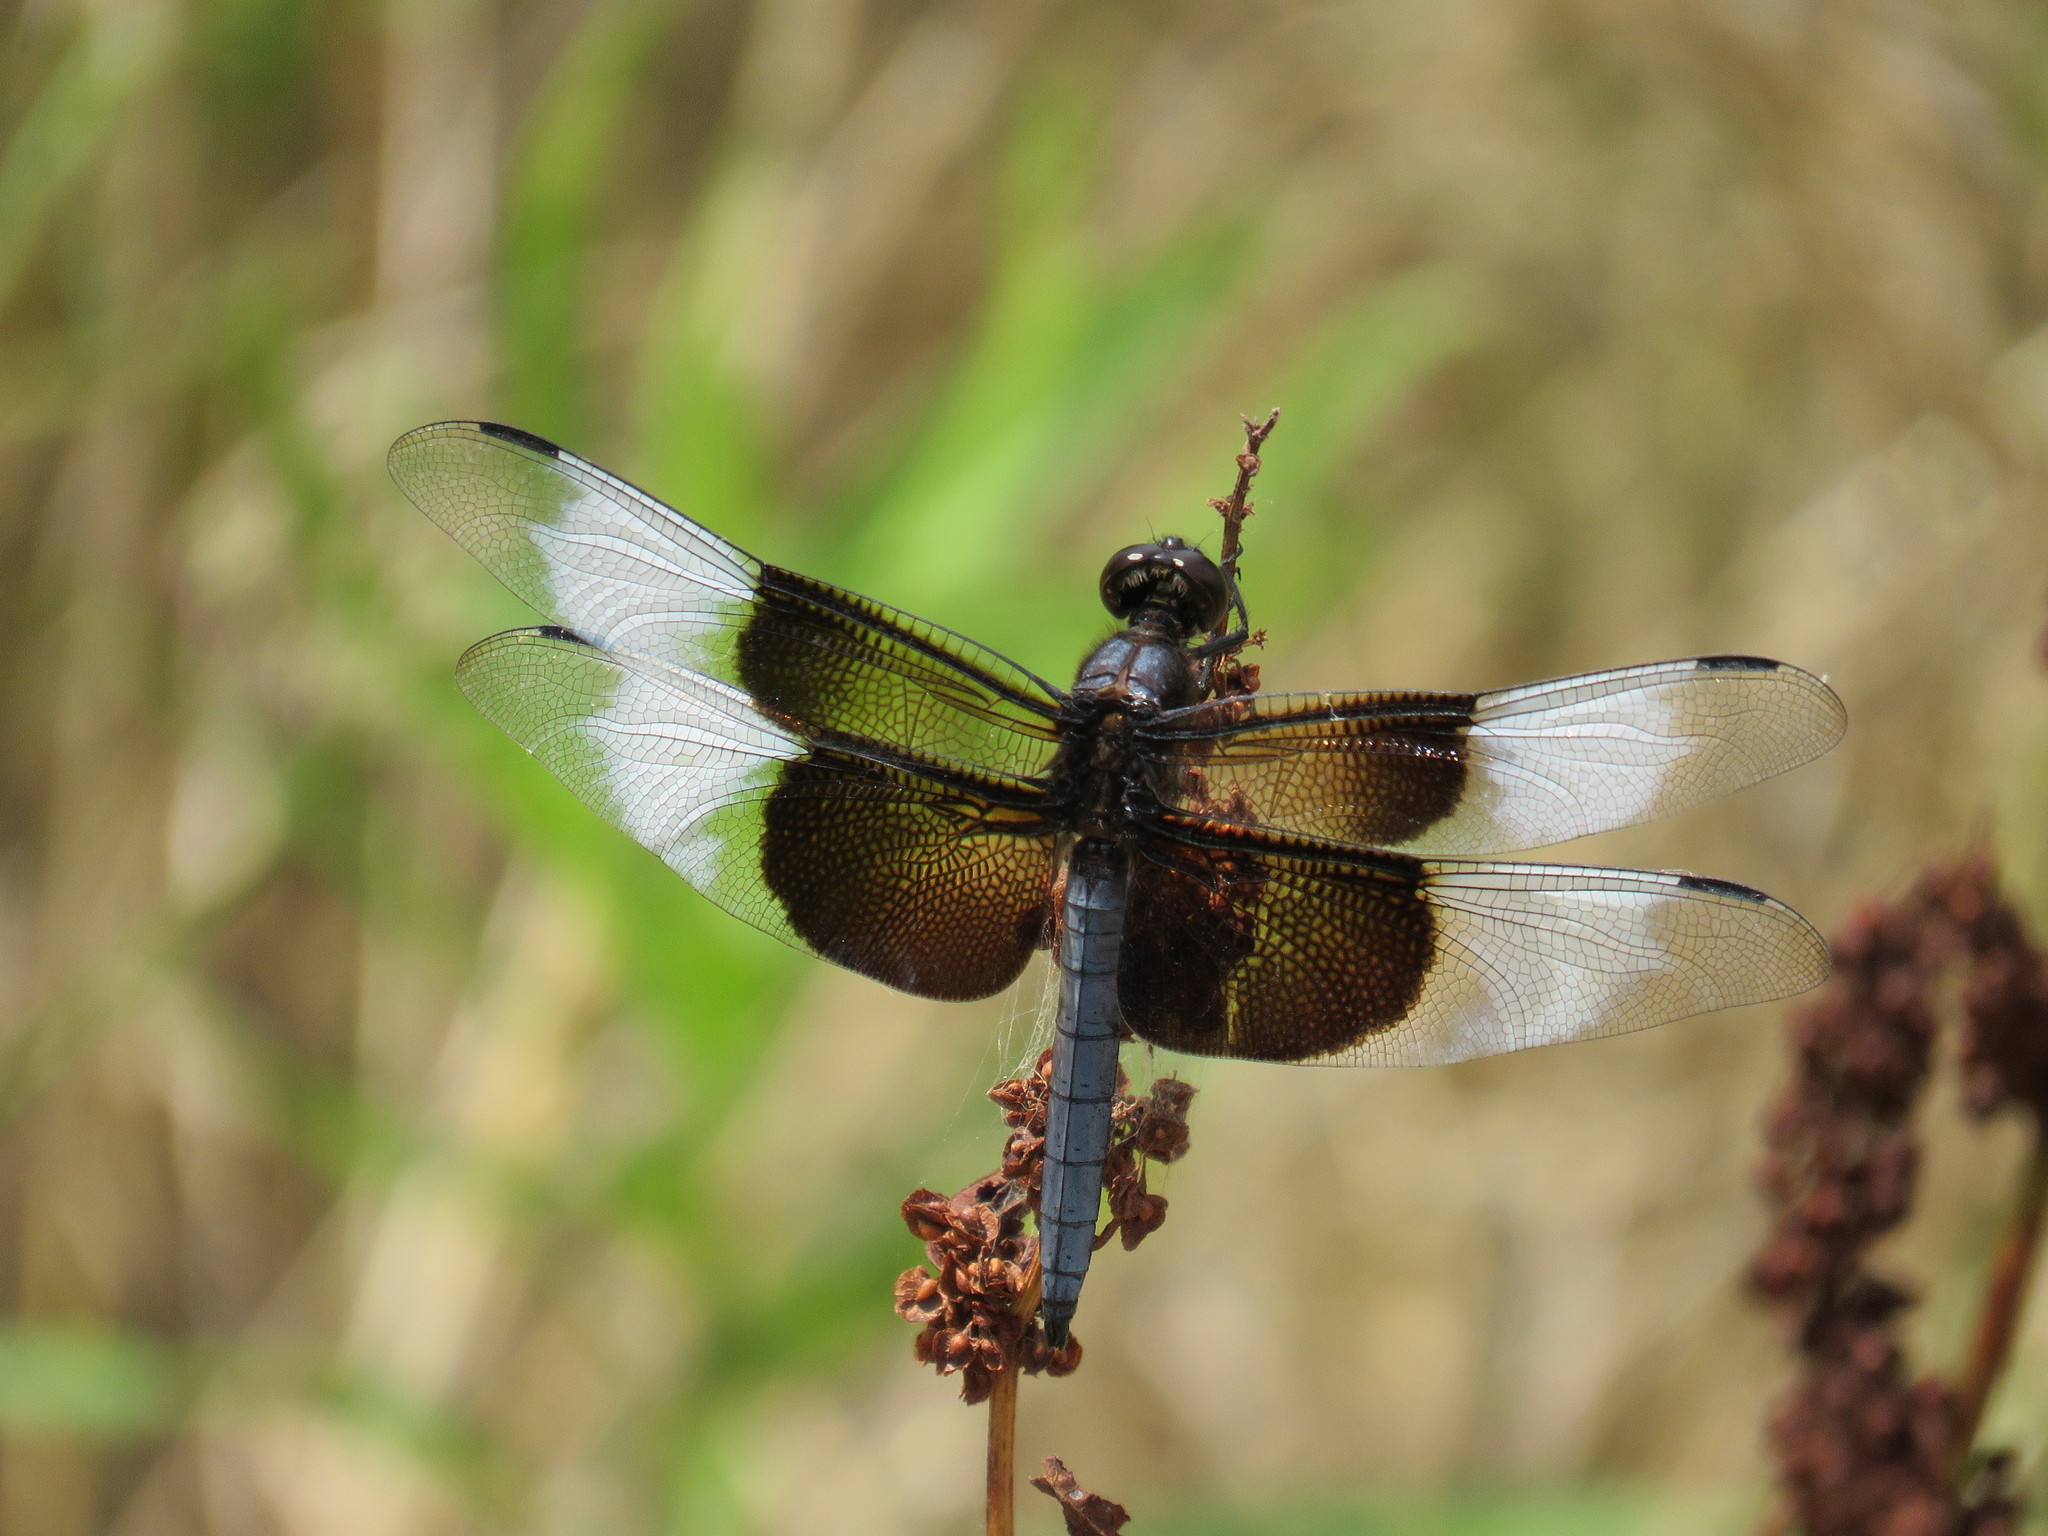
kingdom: Animalia
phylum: Arthropoda
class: Insecta
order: Odonata
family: Libellulidae
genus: Libellula
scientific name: Libellula luctuosa
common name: Widow skimmer
